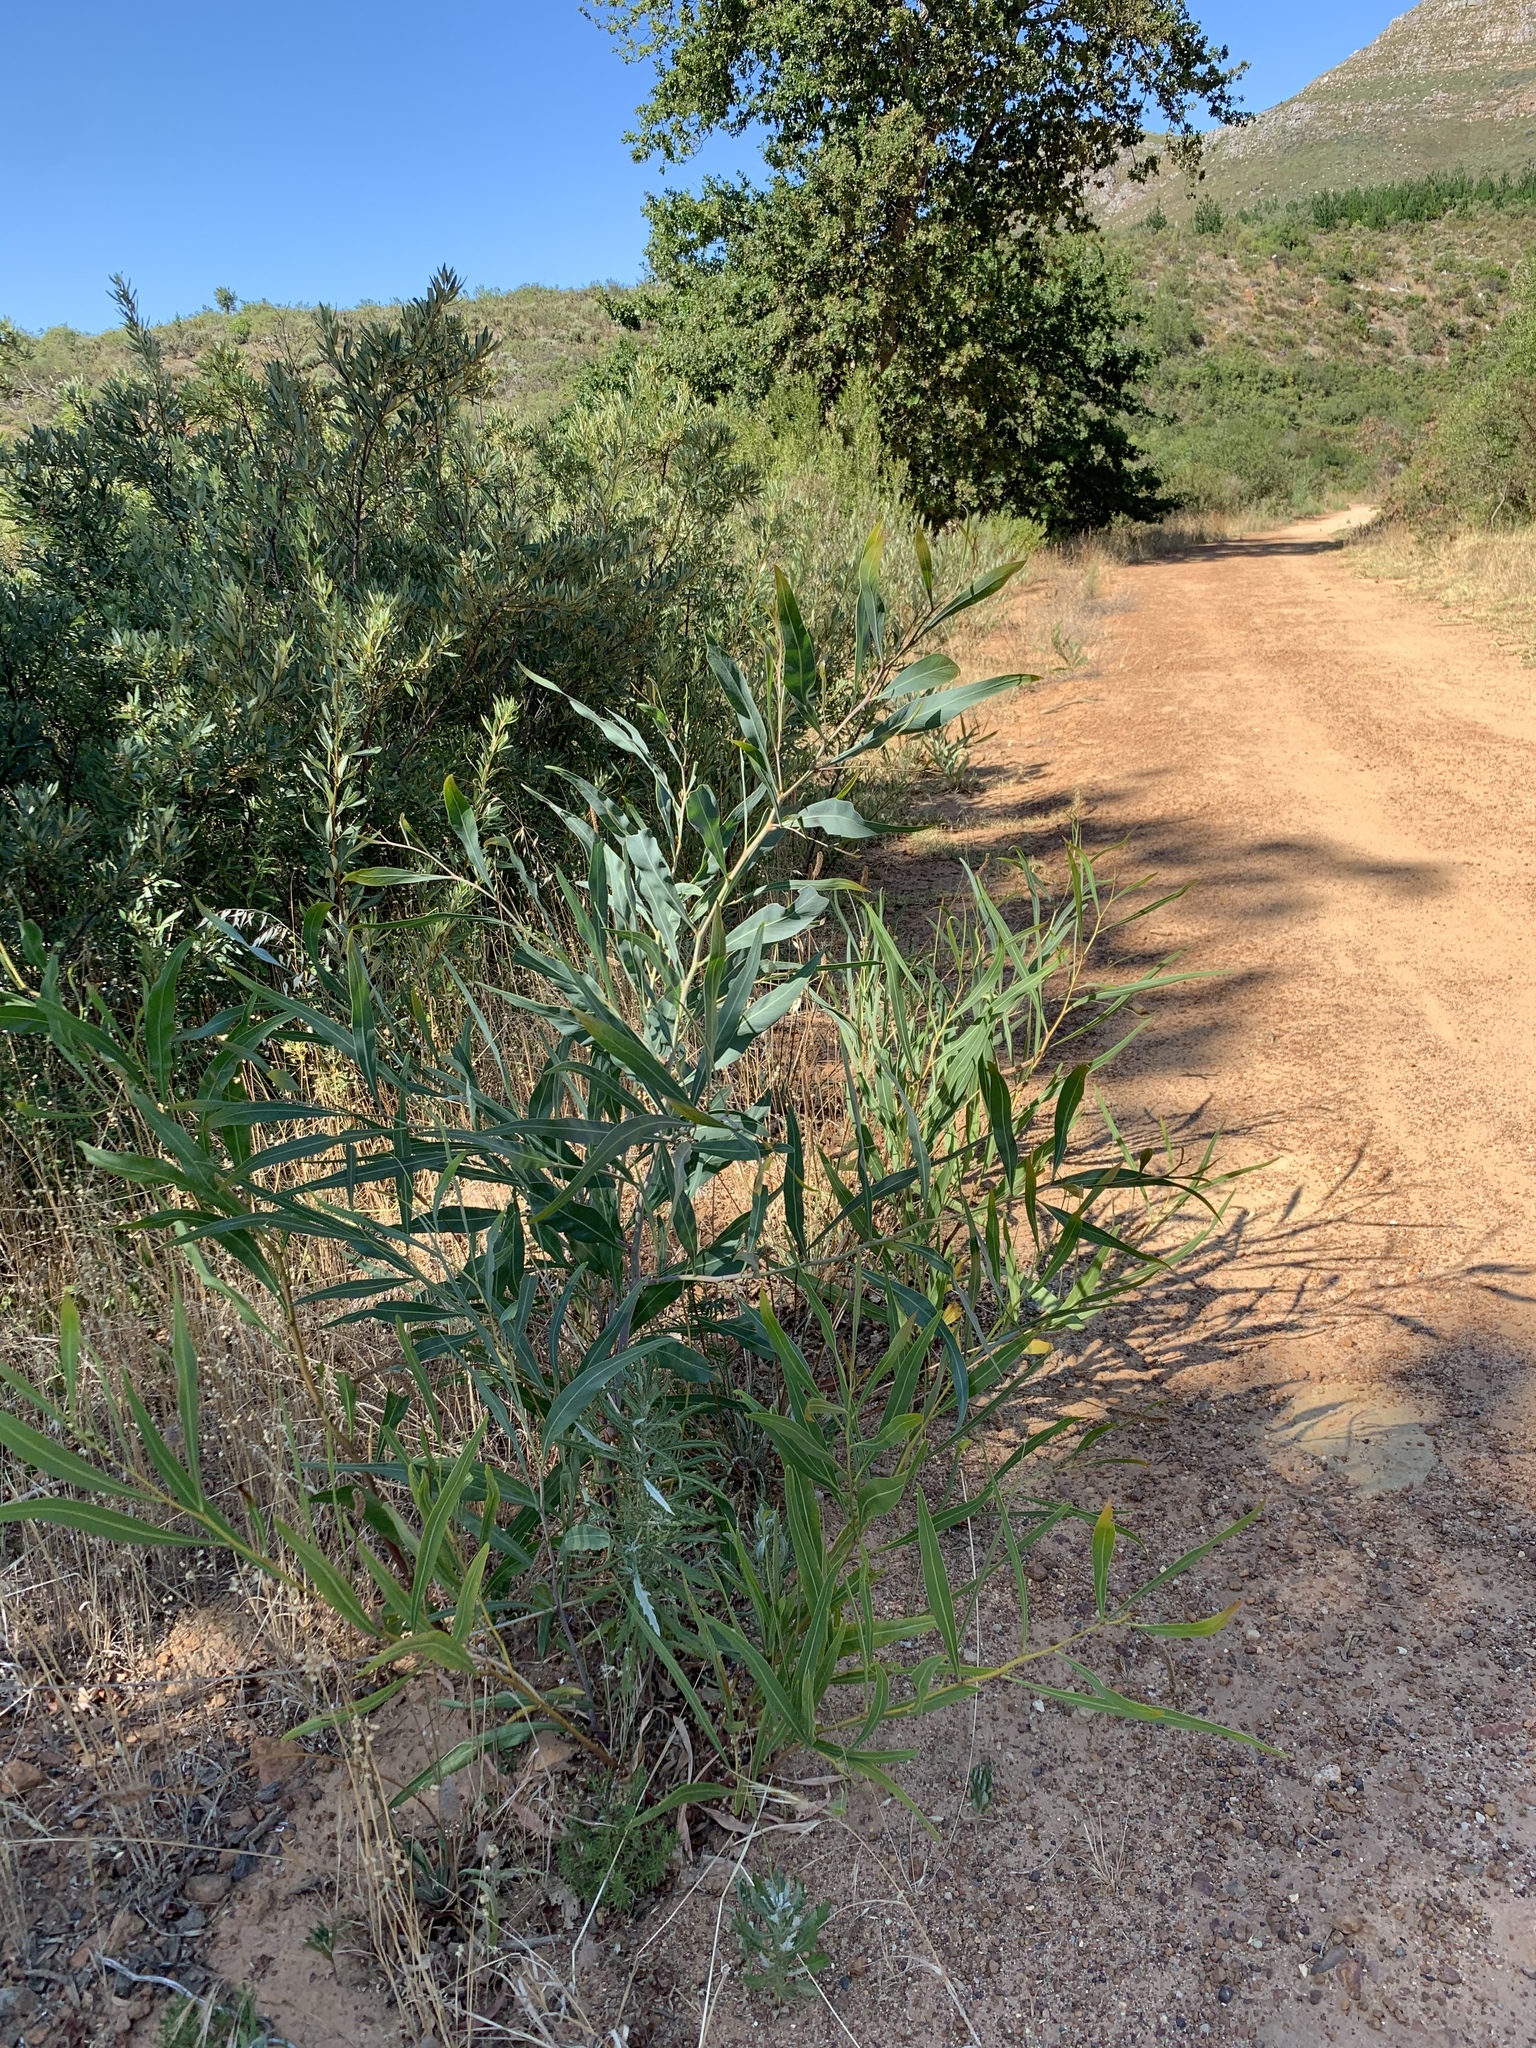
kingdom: Plantae
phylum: Tracheophyta
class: Magnoliopsida
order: Fabales
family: Fabaceae
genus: Acacia
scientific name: Acacia saligna
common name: Orange wattle
